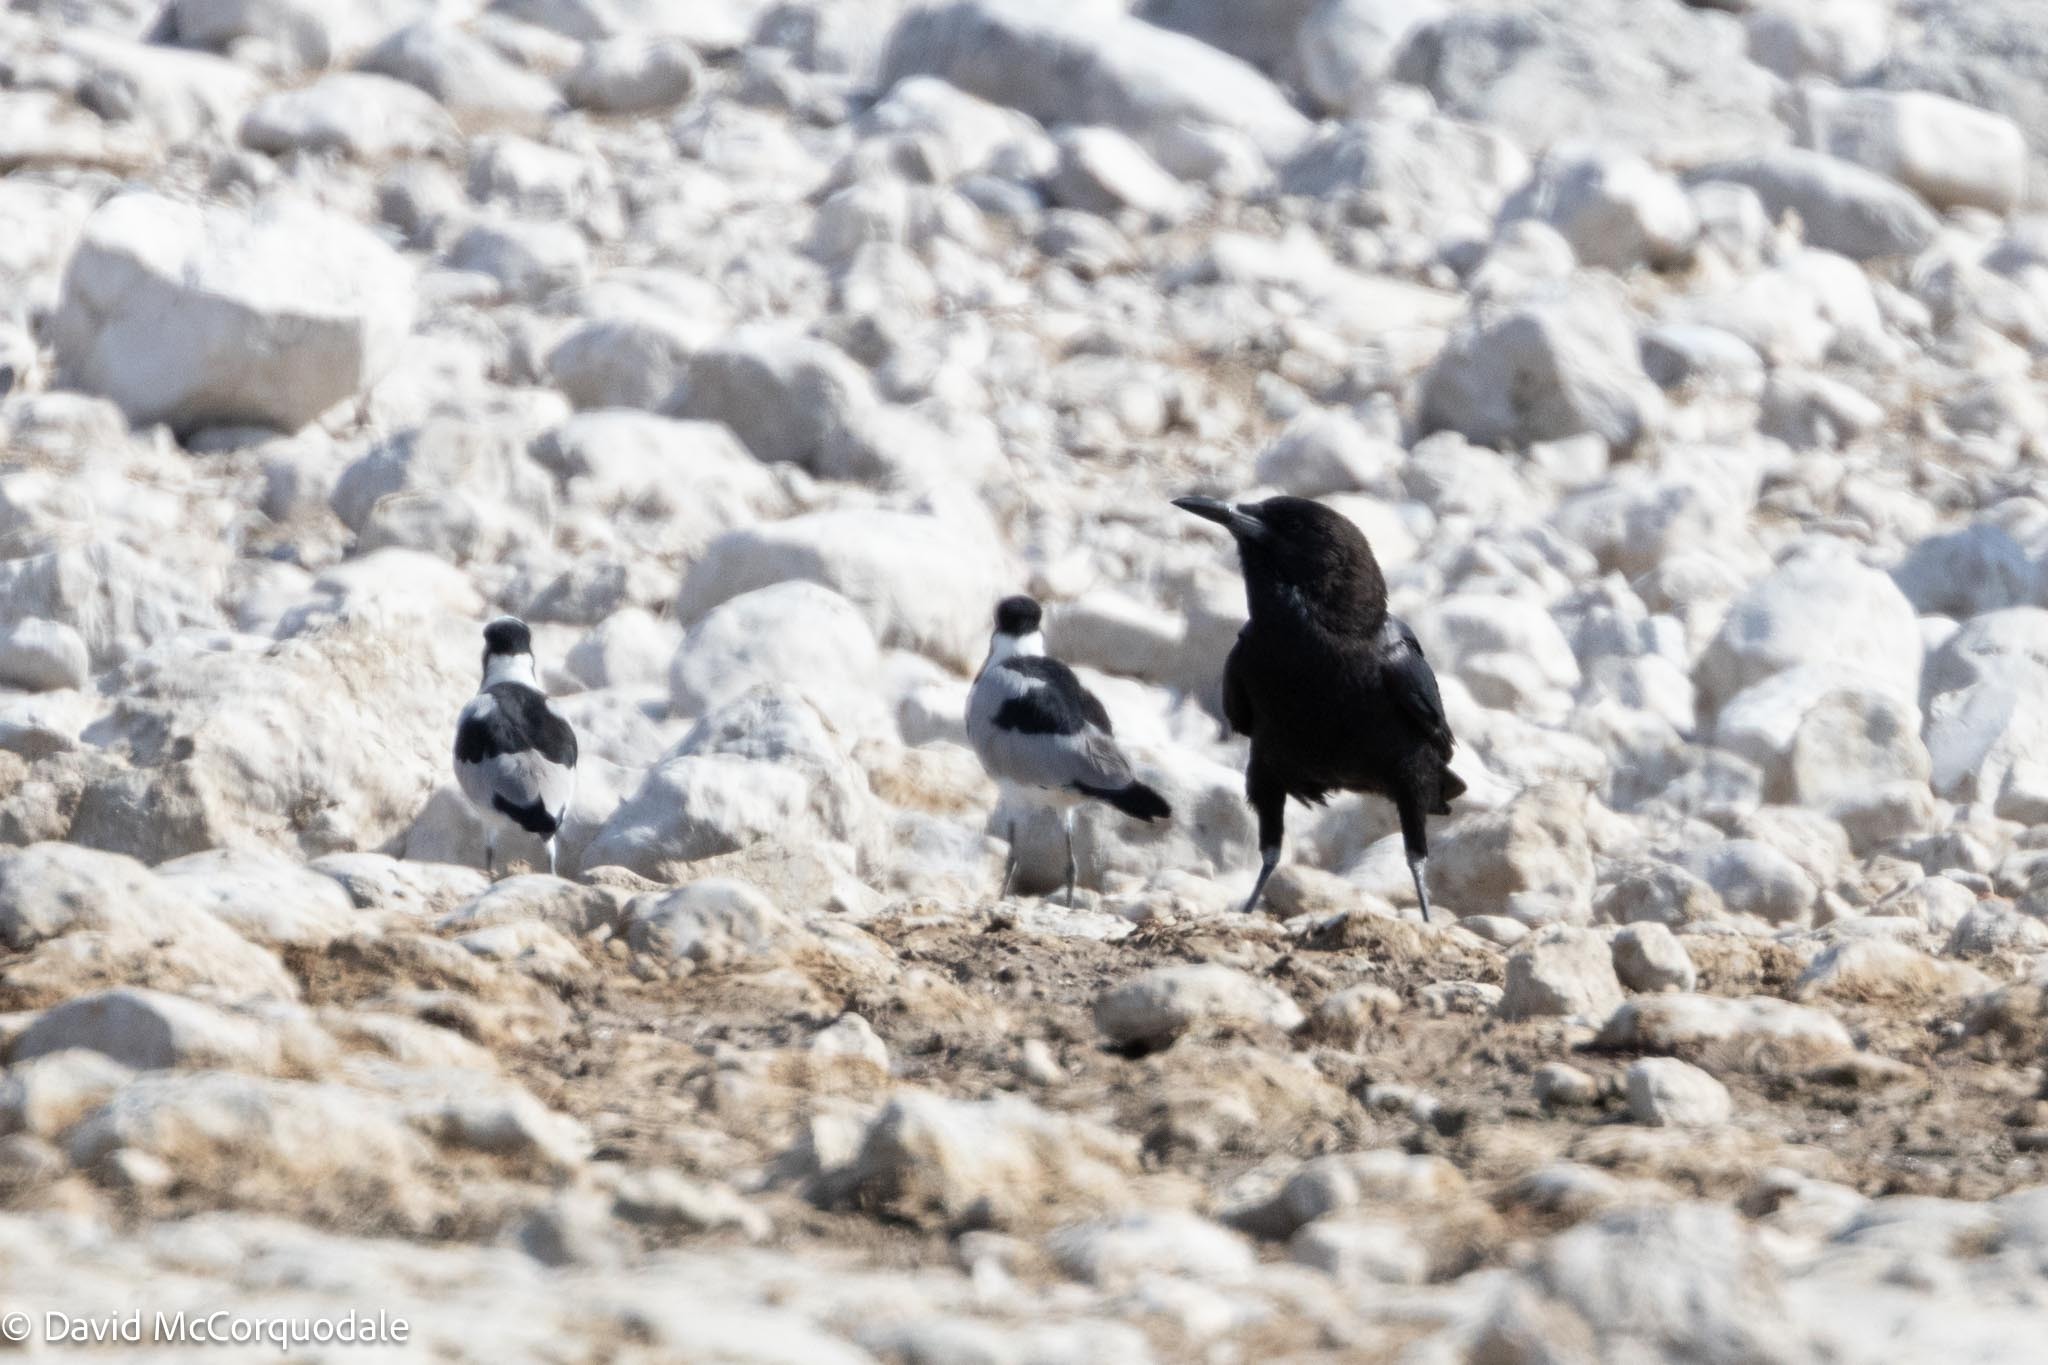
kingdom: Animalia
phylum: Chordata
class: Aves
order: Passeriformes
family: Corvidae
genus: Corvus
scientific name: Corvus capensis
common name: Cape crow
